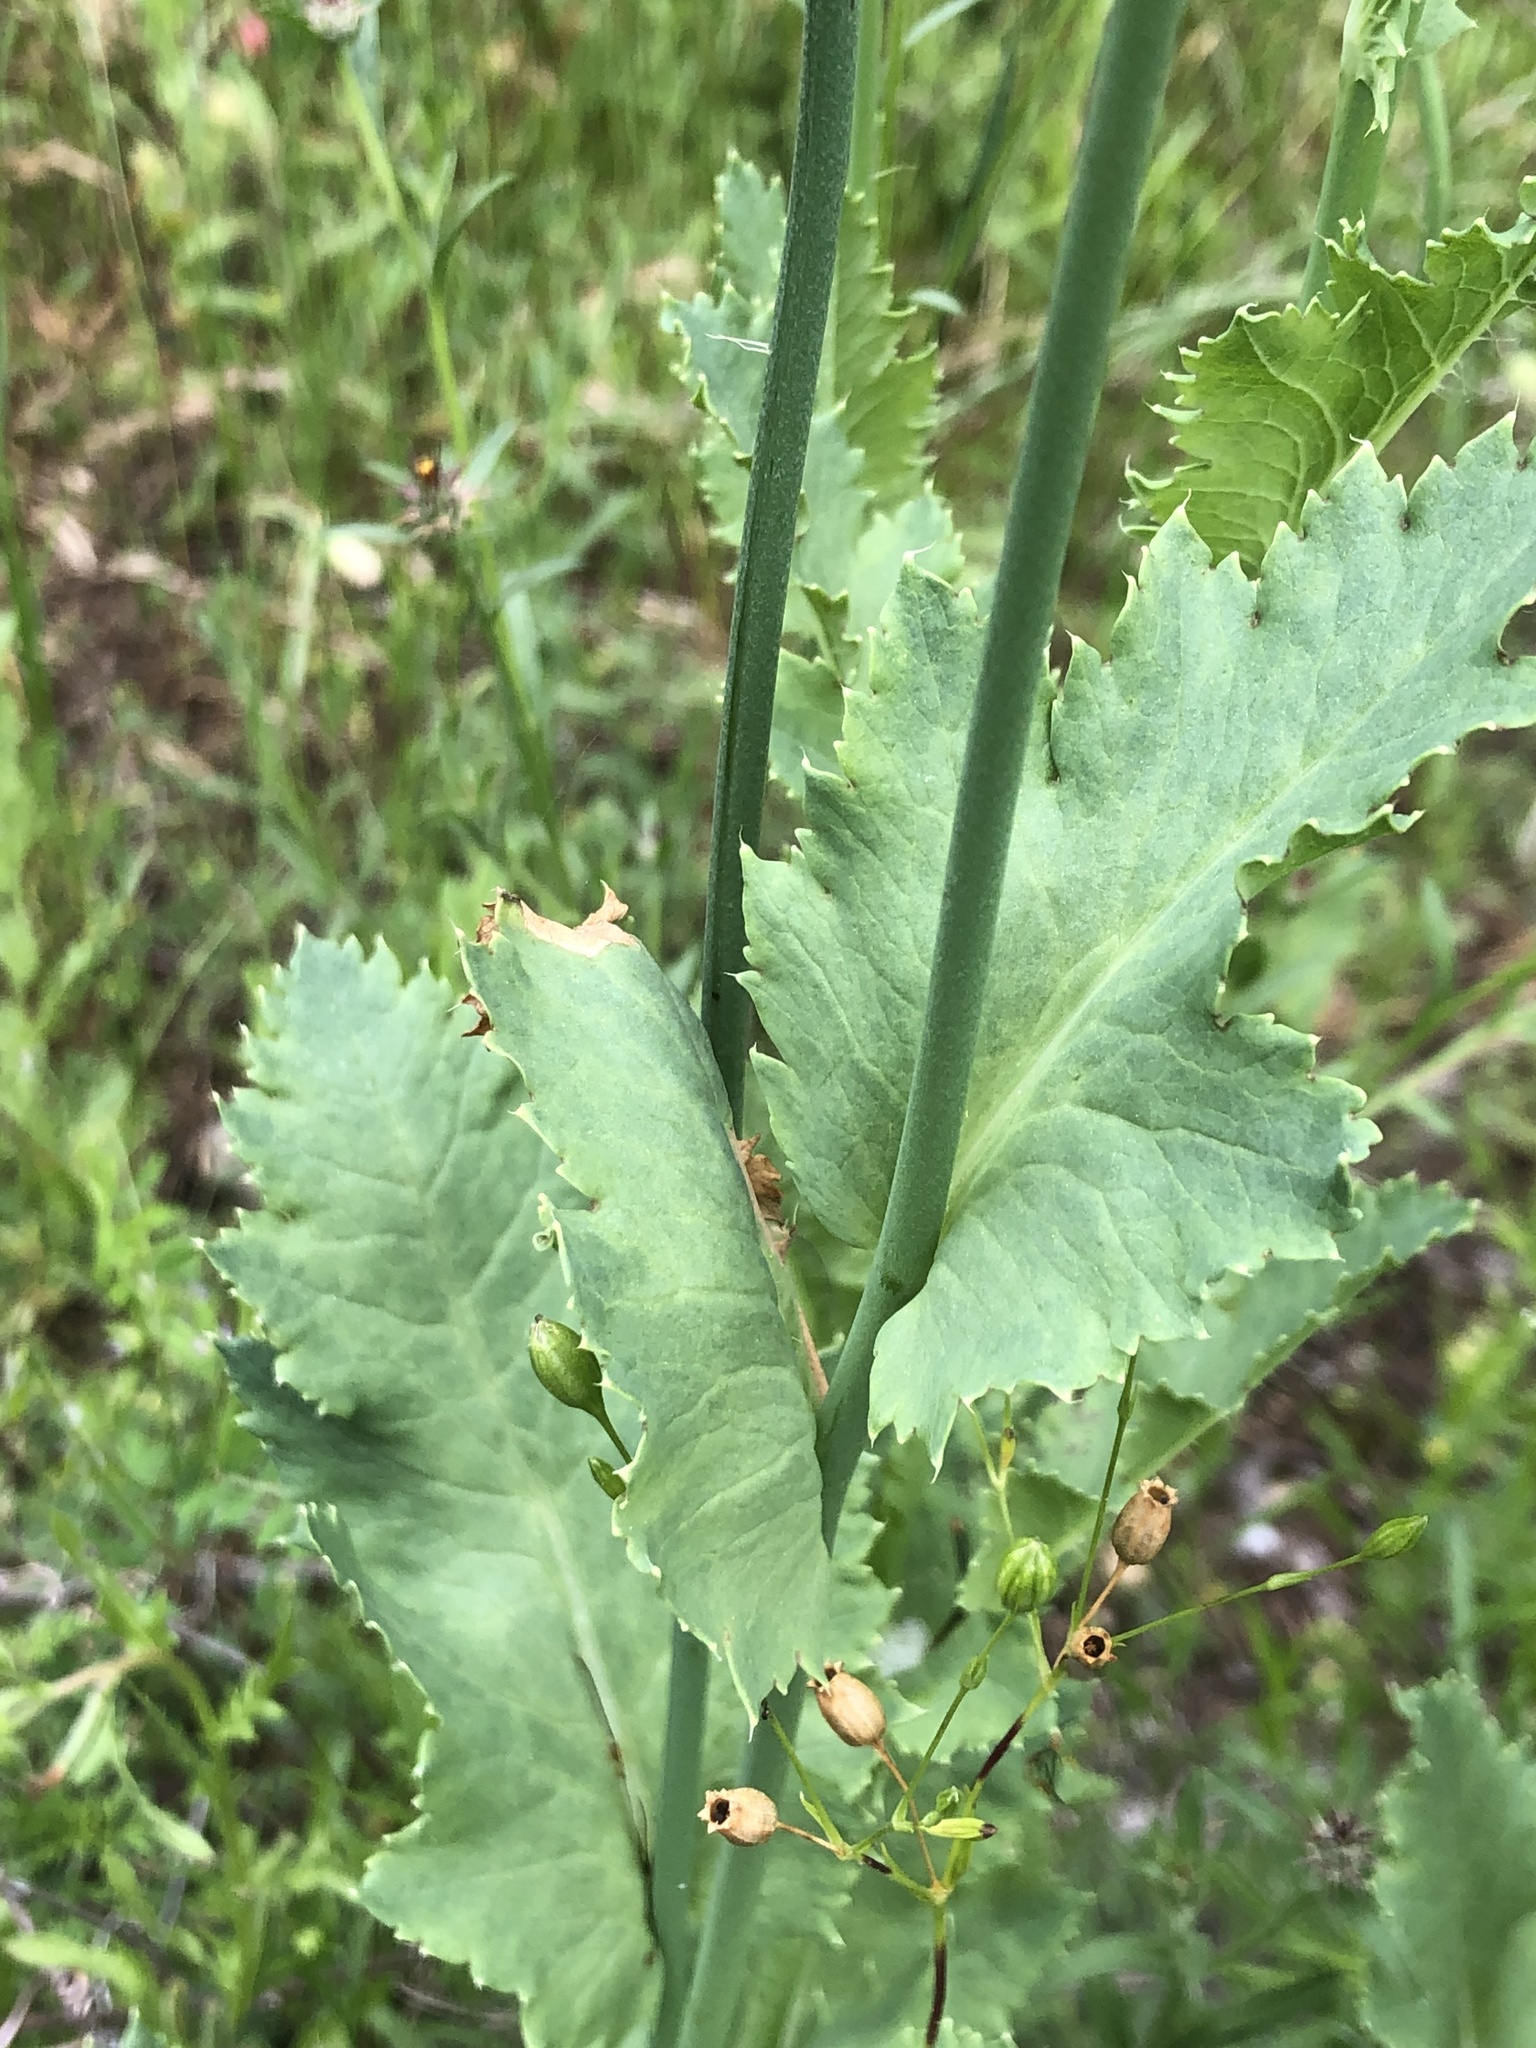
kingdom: Plantae
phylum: Tracheophyta
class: Magnoliopsida
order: Ranunculales
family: Papaveraceae
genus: Papaver
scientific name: Papaver somniferum
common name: Opium poppy
